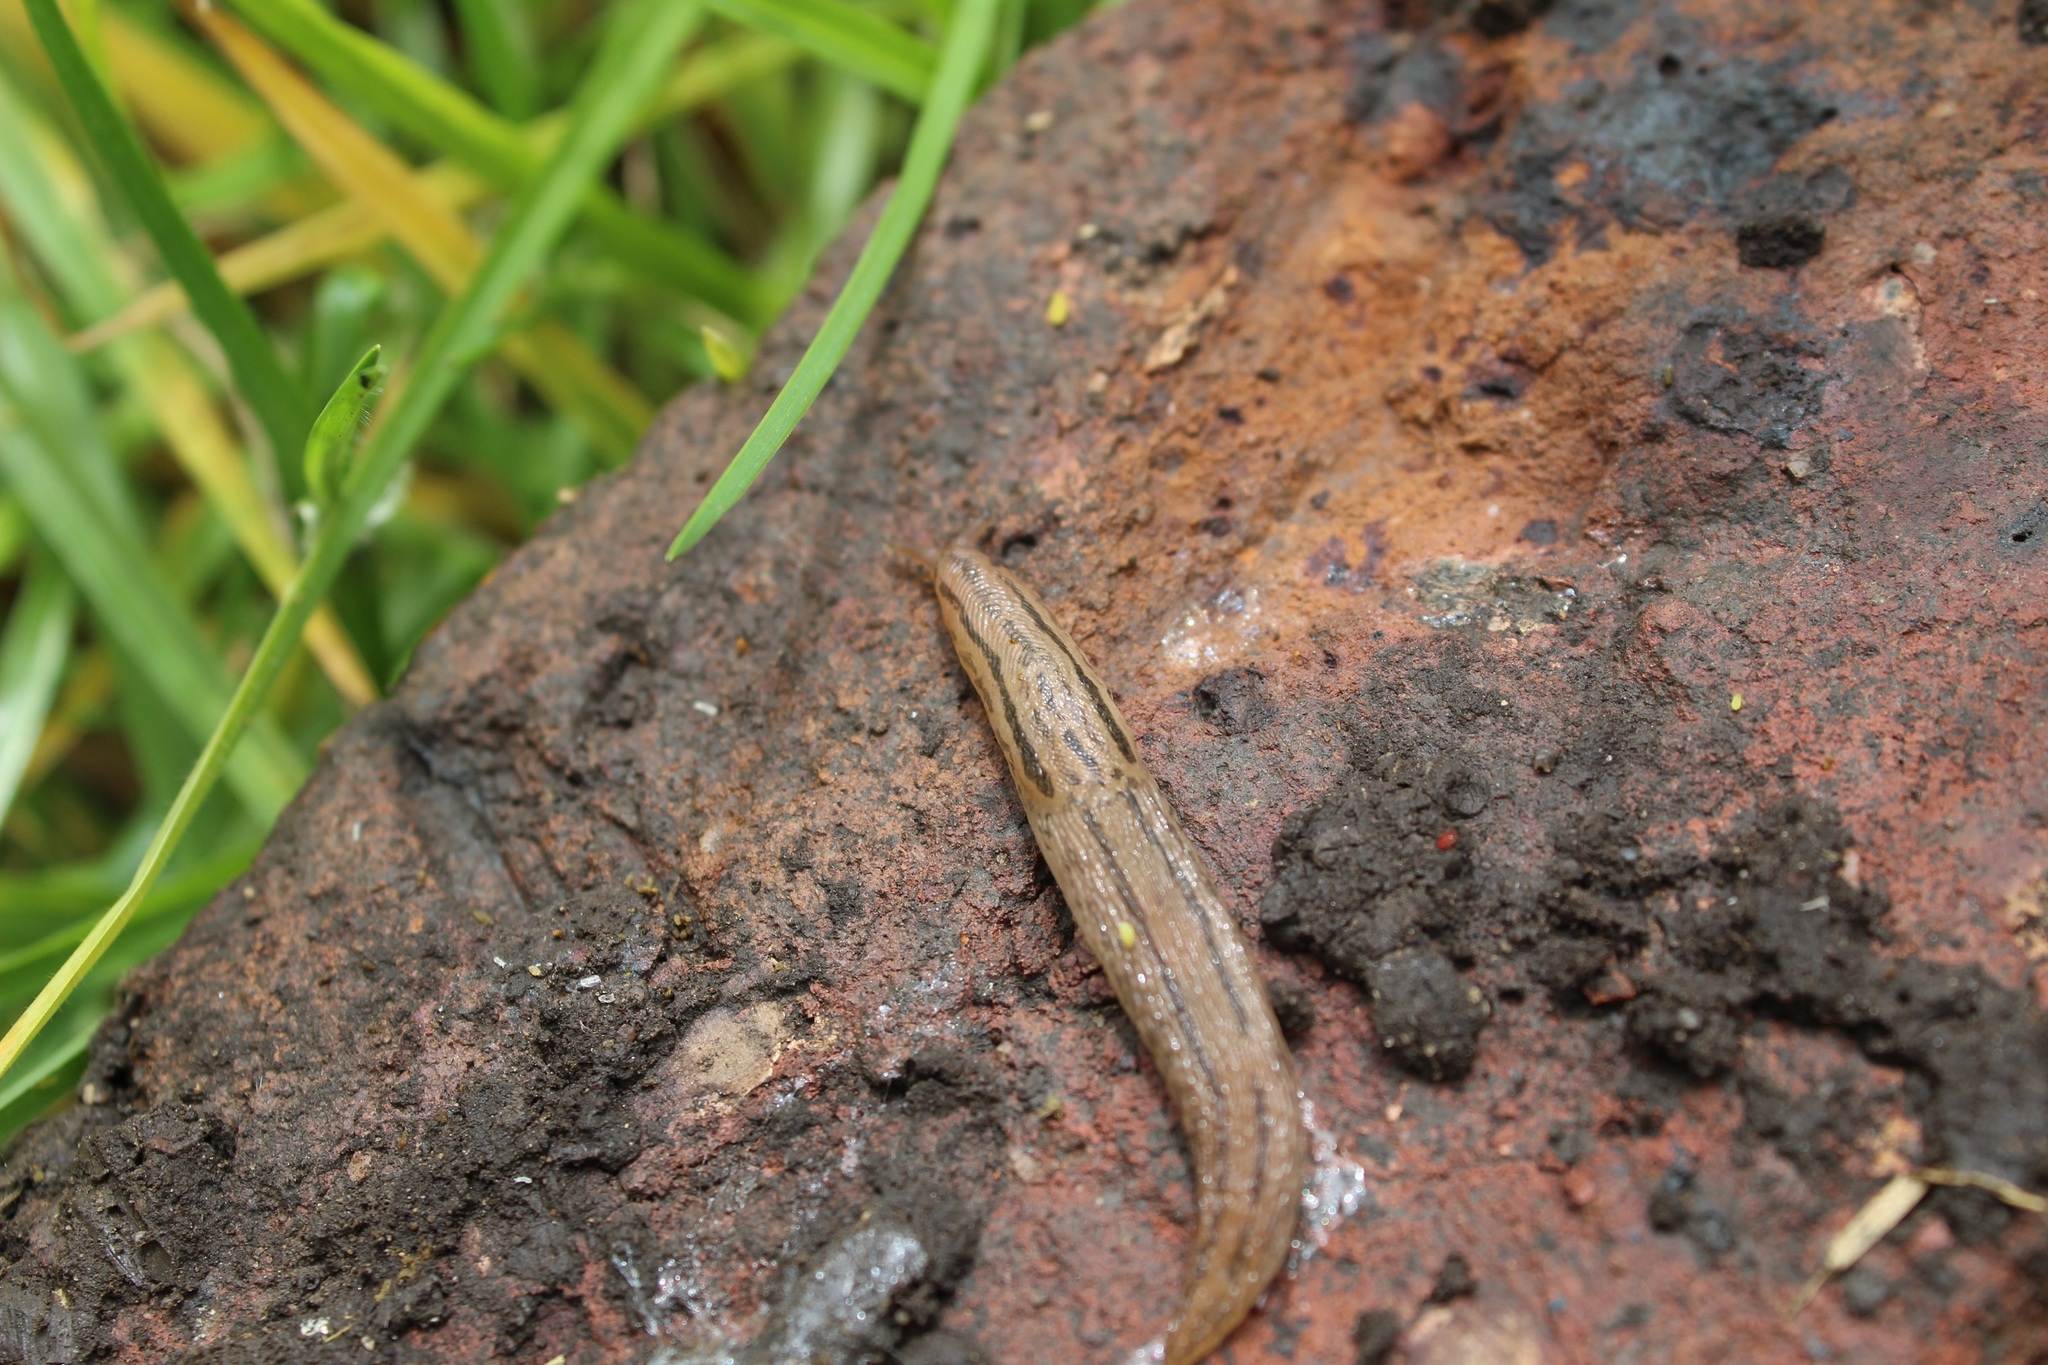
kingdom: Animalia
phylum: Mollusca
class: Gastropoda
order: Stylommatophora
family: Limacidae
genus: Ambigolimax
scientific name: Ambigolimax
